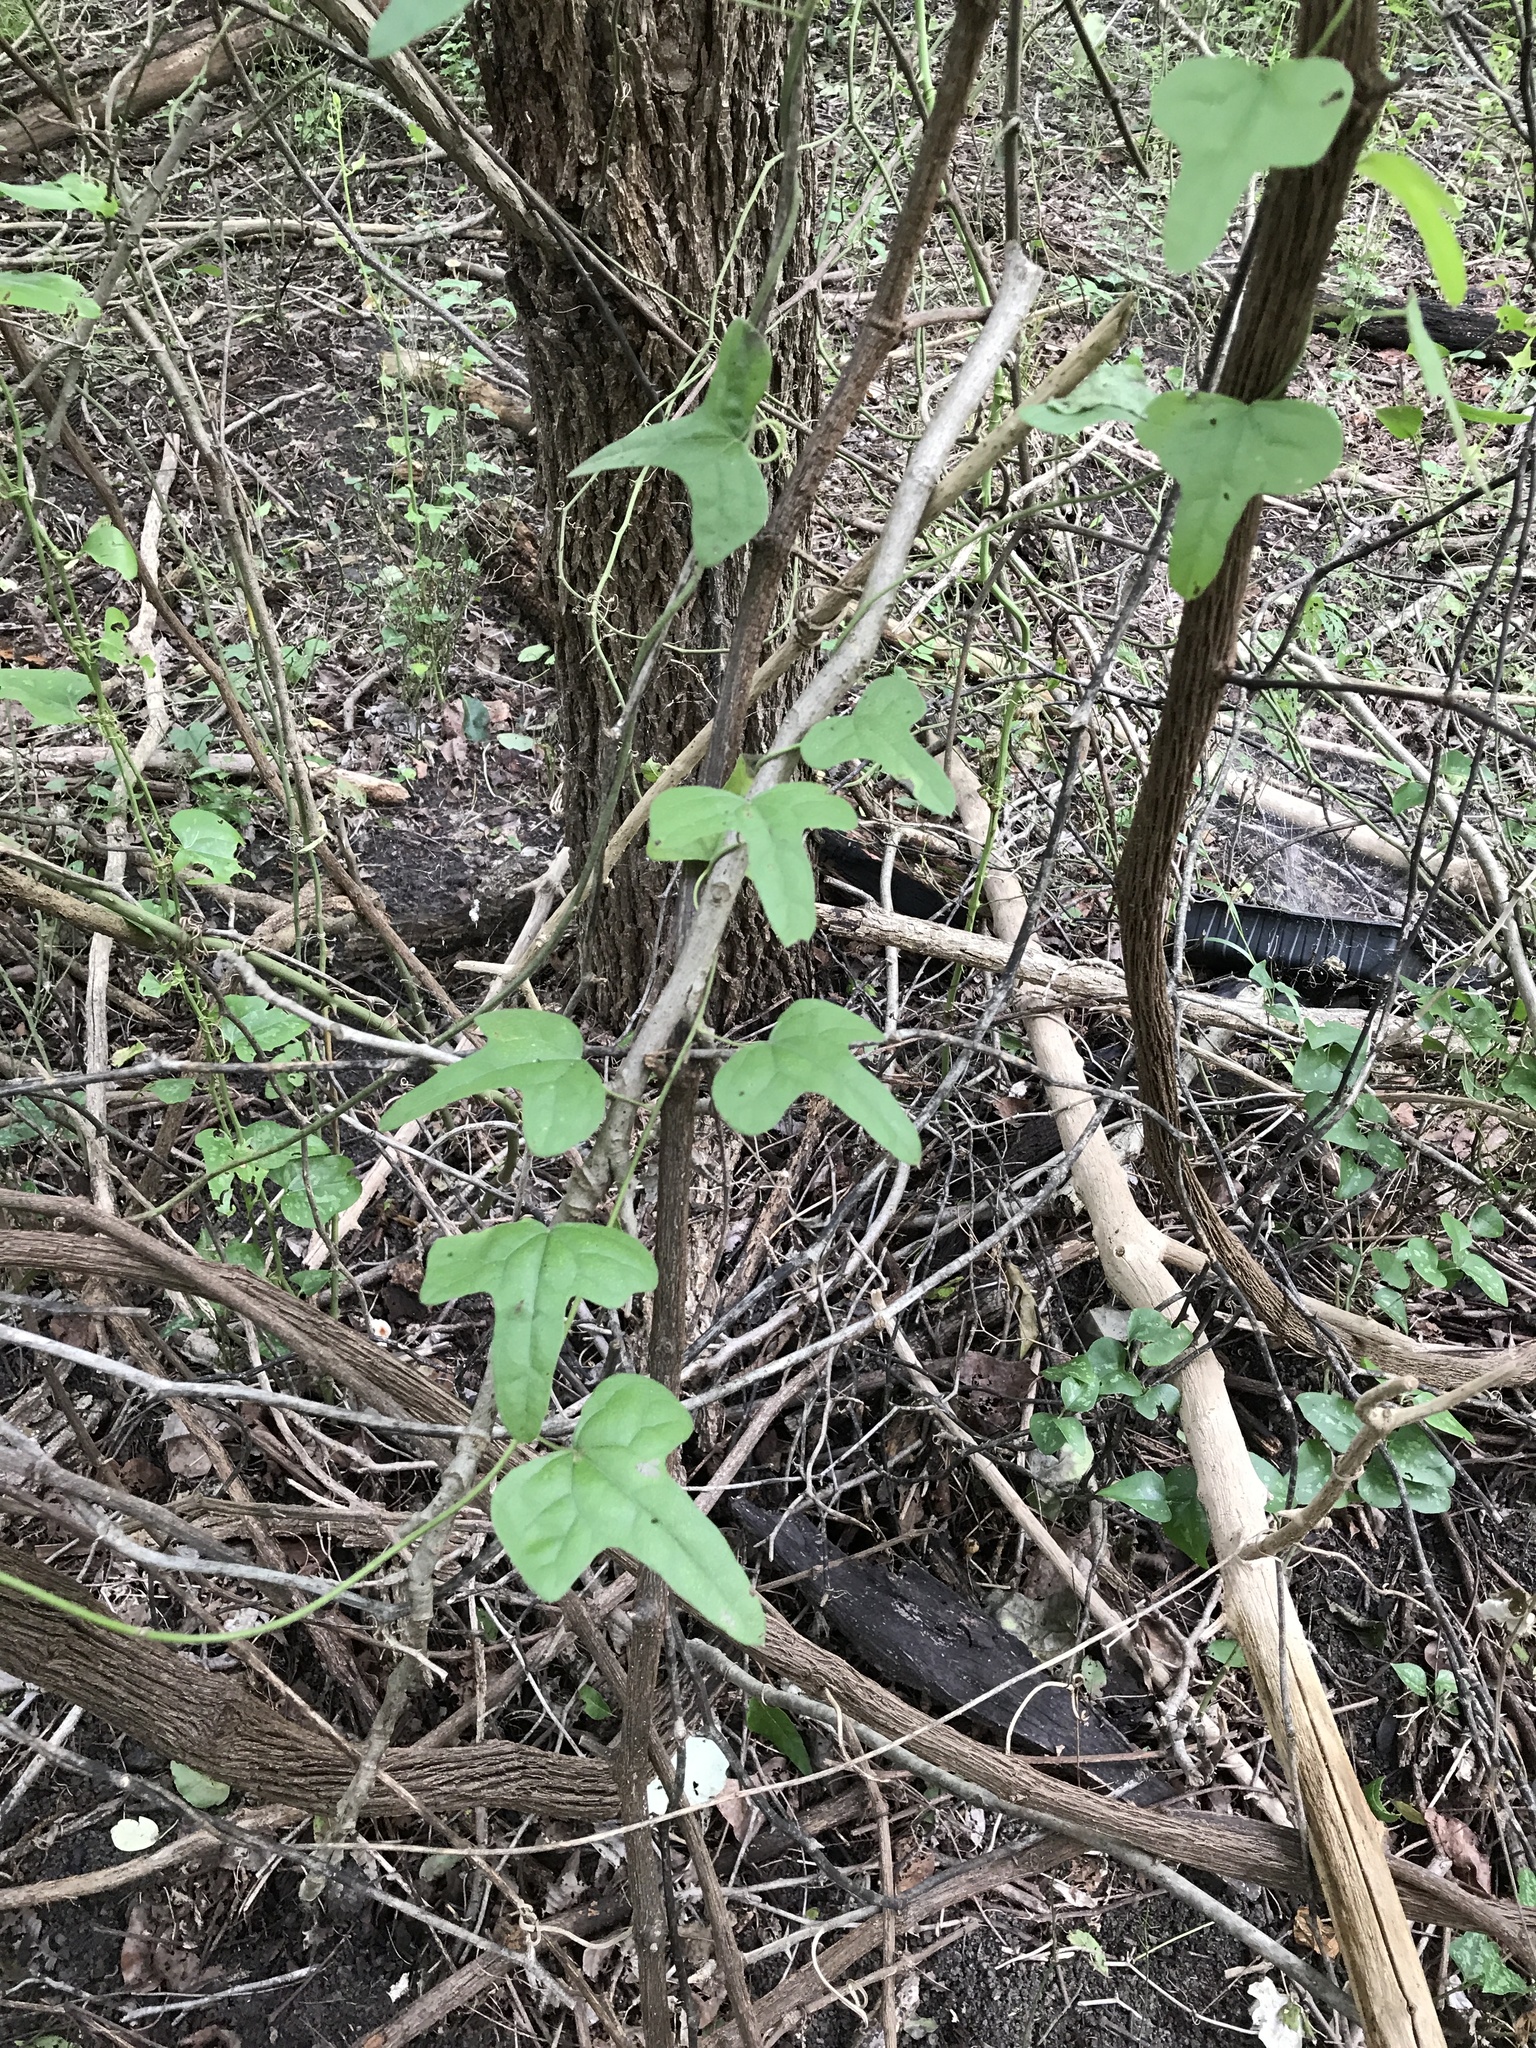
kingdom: Plantae
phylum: Tracheophyta
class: Magnoliopsida
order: Ranunculales
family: Menispermaceae
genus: Cocculus
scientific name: Cocculus carolinus
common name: Carolina moonseed
